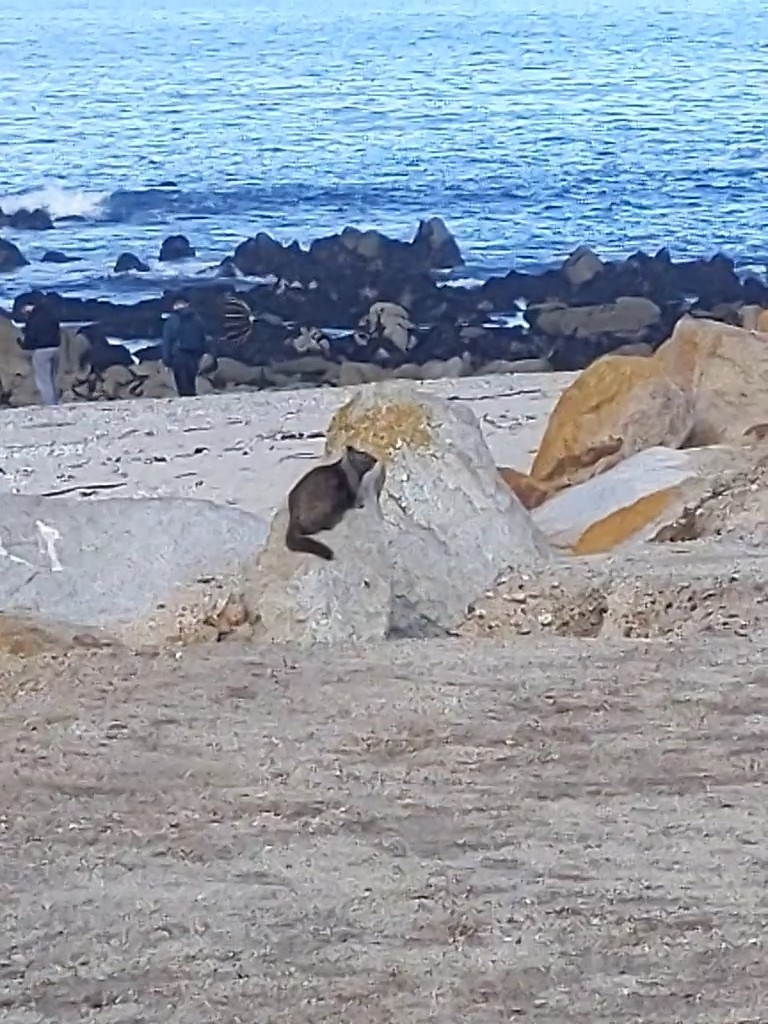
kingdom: Animalia
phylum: Chordata
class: Mammalia
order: Rodentia
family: Sciuridae
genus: Otospermophilus
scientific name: Otospermophilus beecheyi
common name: California ground squirrel
